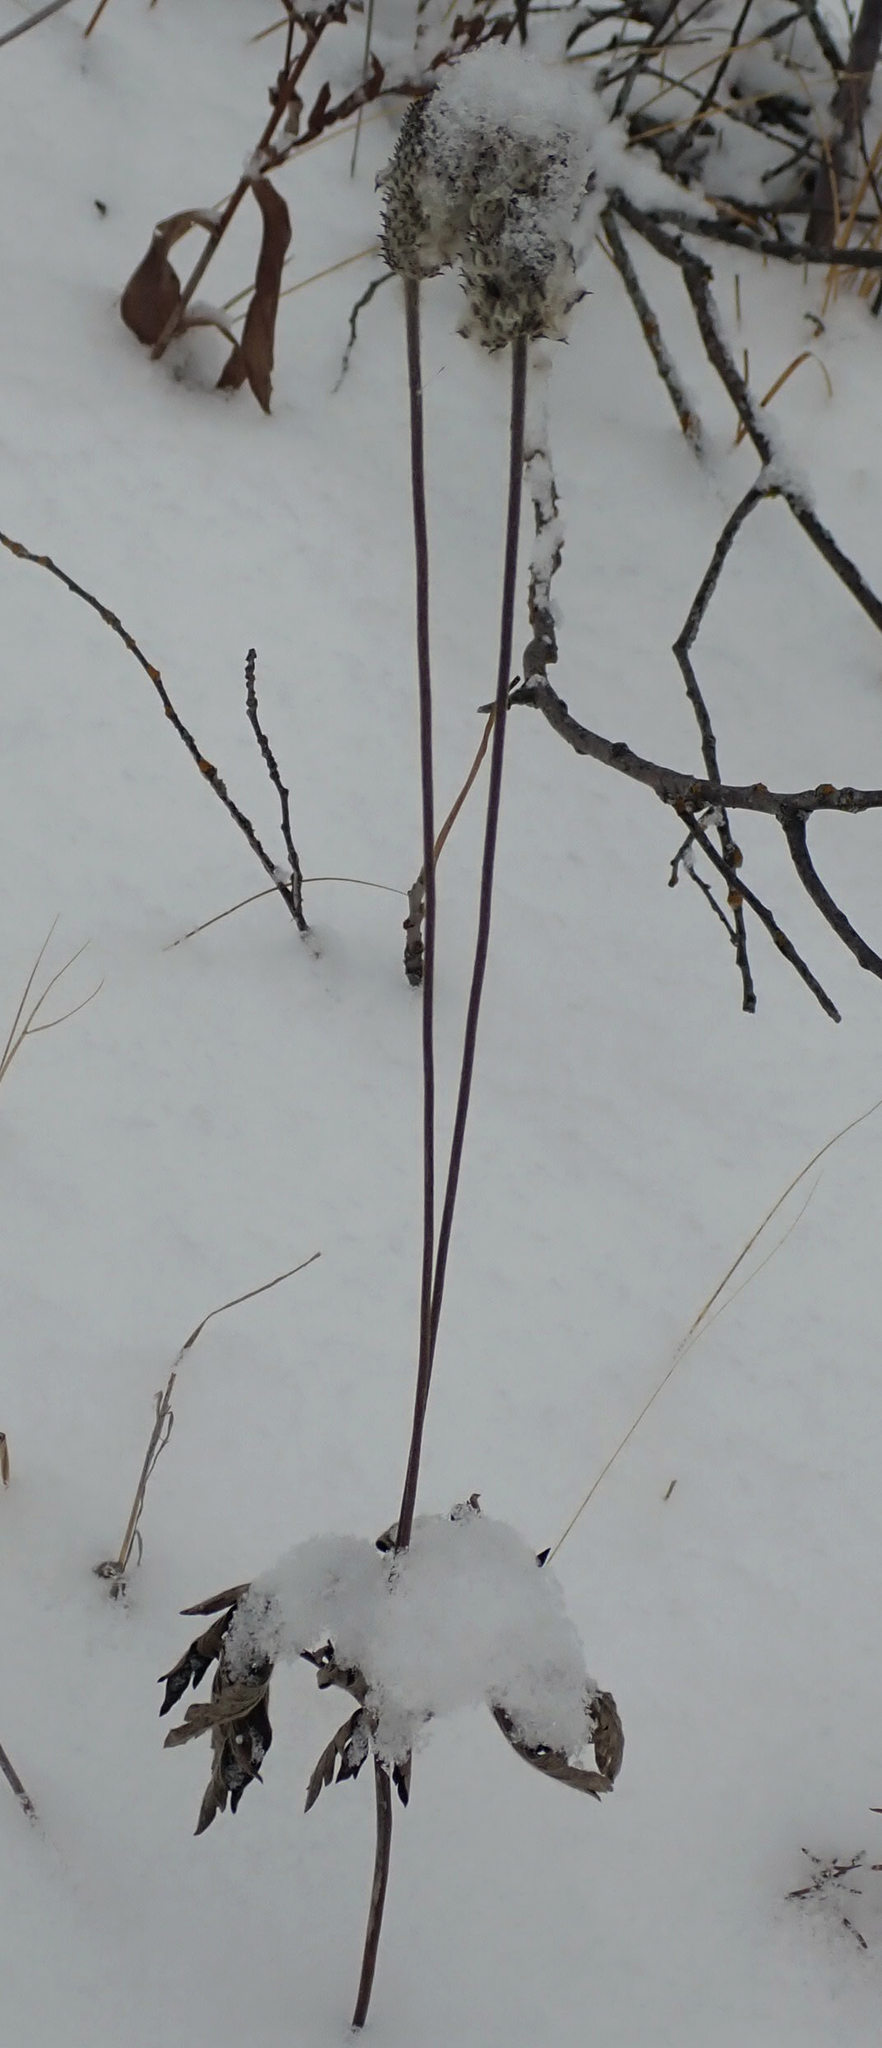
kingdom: Plantae
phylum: Tracheophyta
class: Magnoliopsida
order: Ranunculales
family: Ranunculaceae
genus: Anemone
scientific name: Anemone cylindrica
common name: Candle anemone
